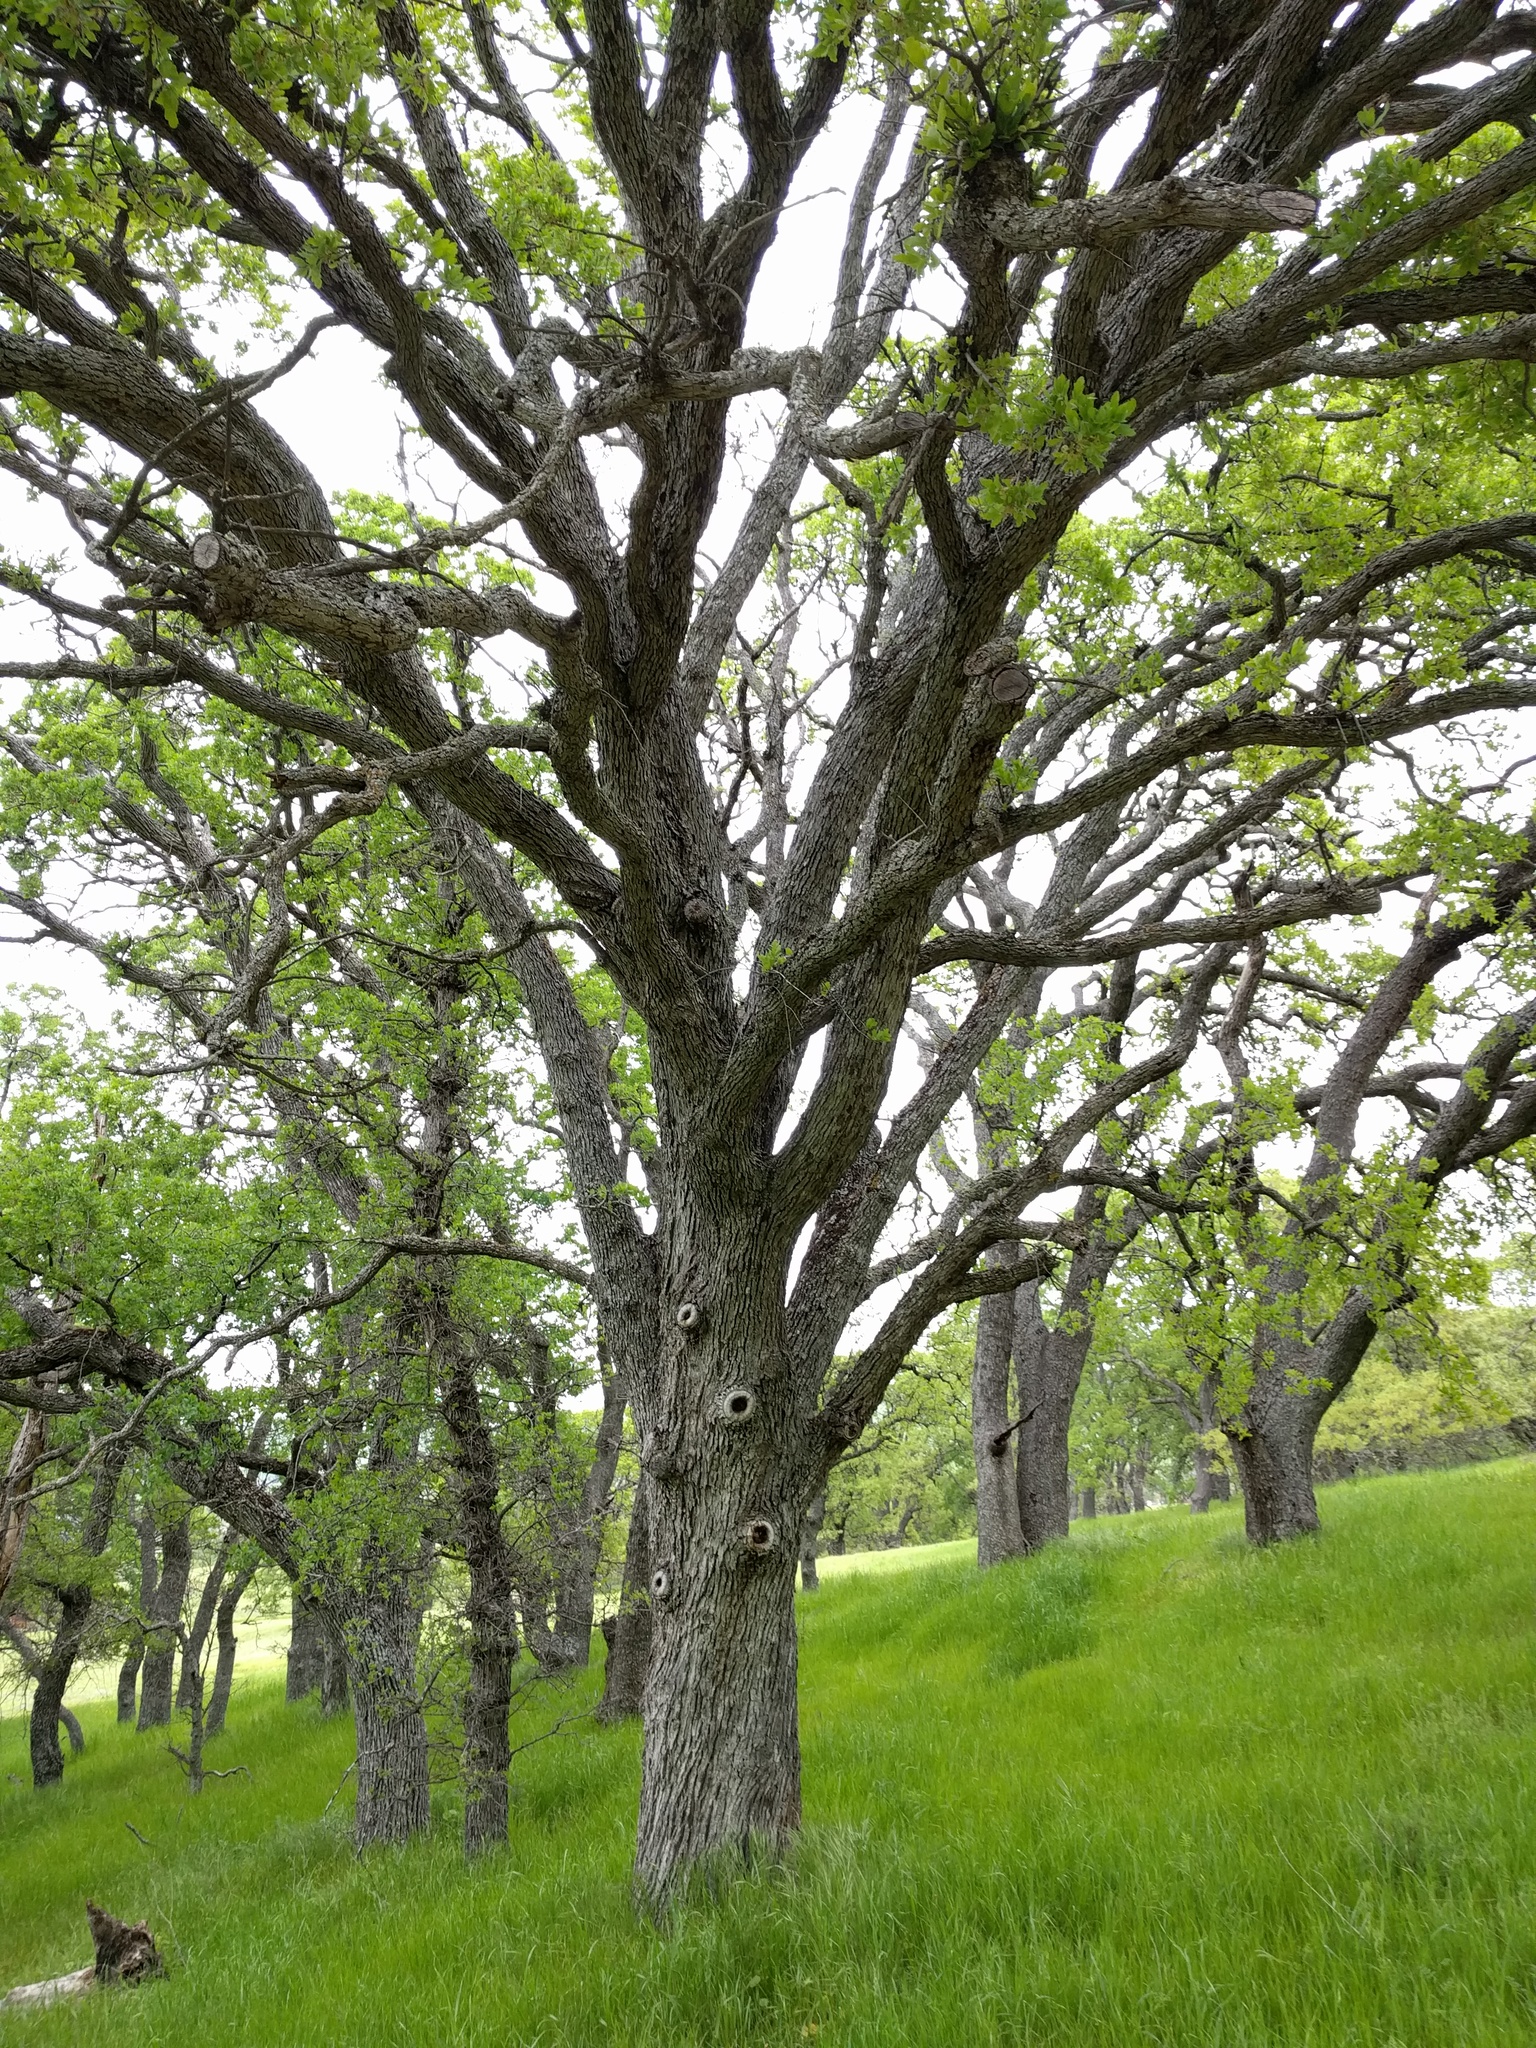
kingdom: Plantae
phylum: Tracheophyta
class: Magnoliopsida
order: Fagales
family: Fagaceae
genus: Quercus
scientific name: Quercus douglasii
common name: Blue oak
